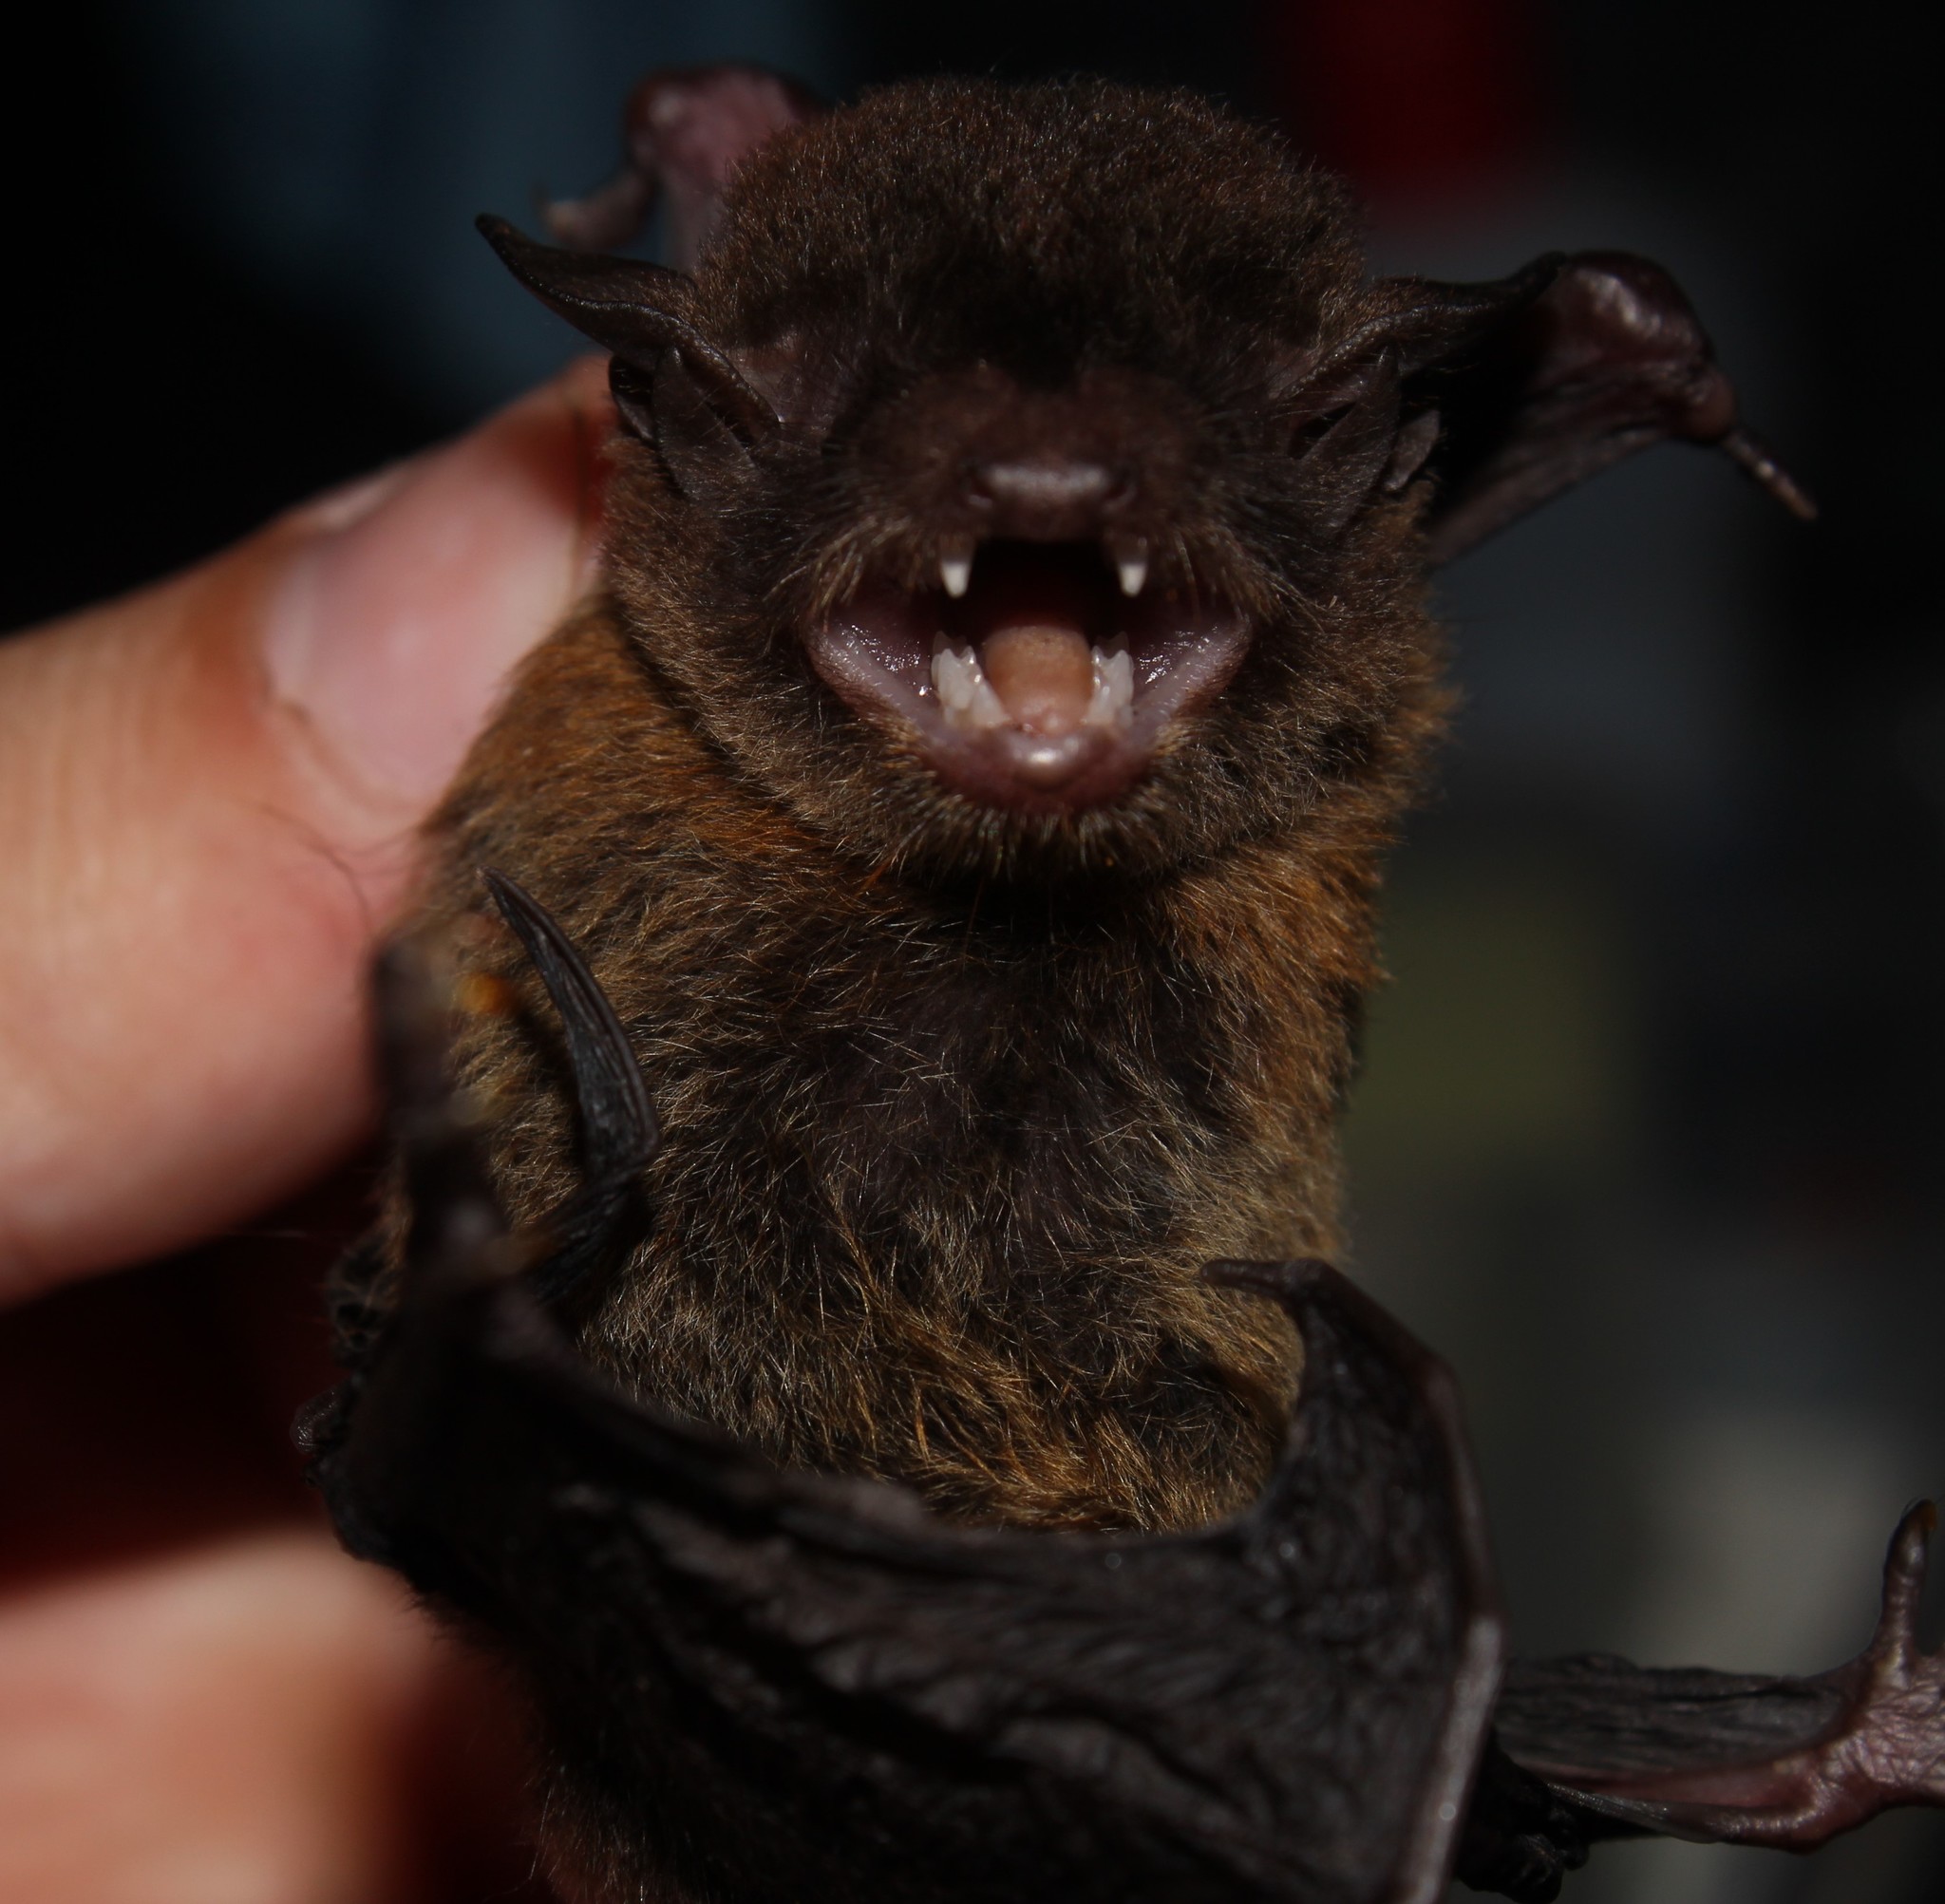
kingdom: Animalia
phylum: Chordata
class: Mammalia
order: Chiroptera
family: Vespertilionidae
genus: Eptesicus
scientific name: Eptesicus brasiliensis
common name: Brazilian brown bat
